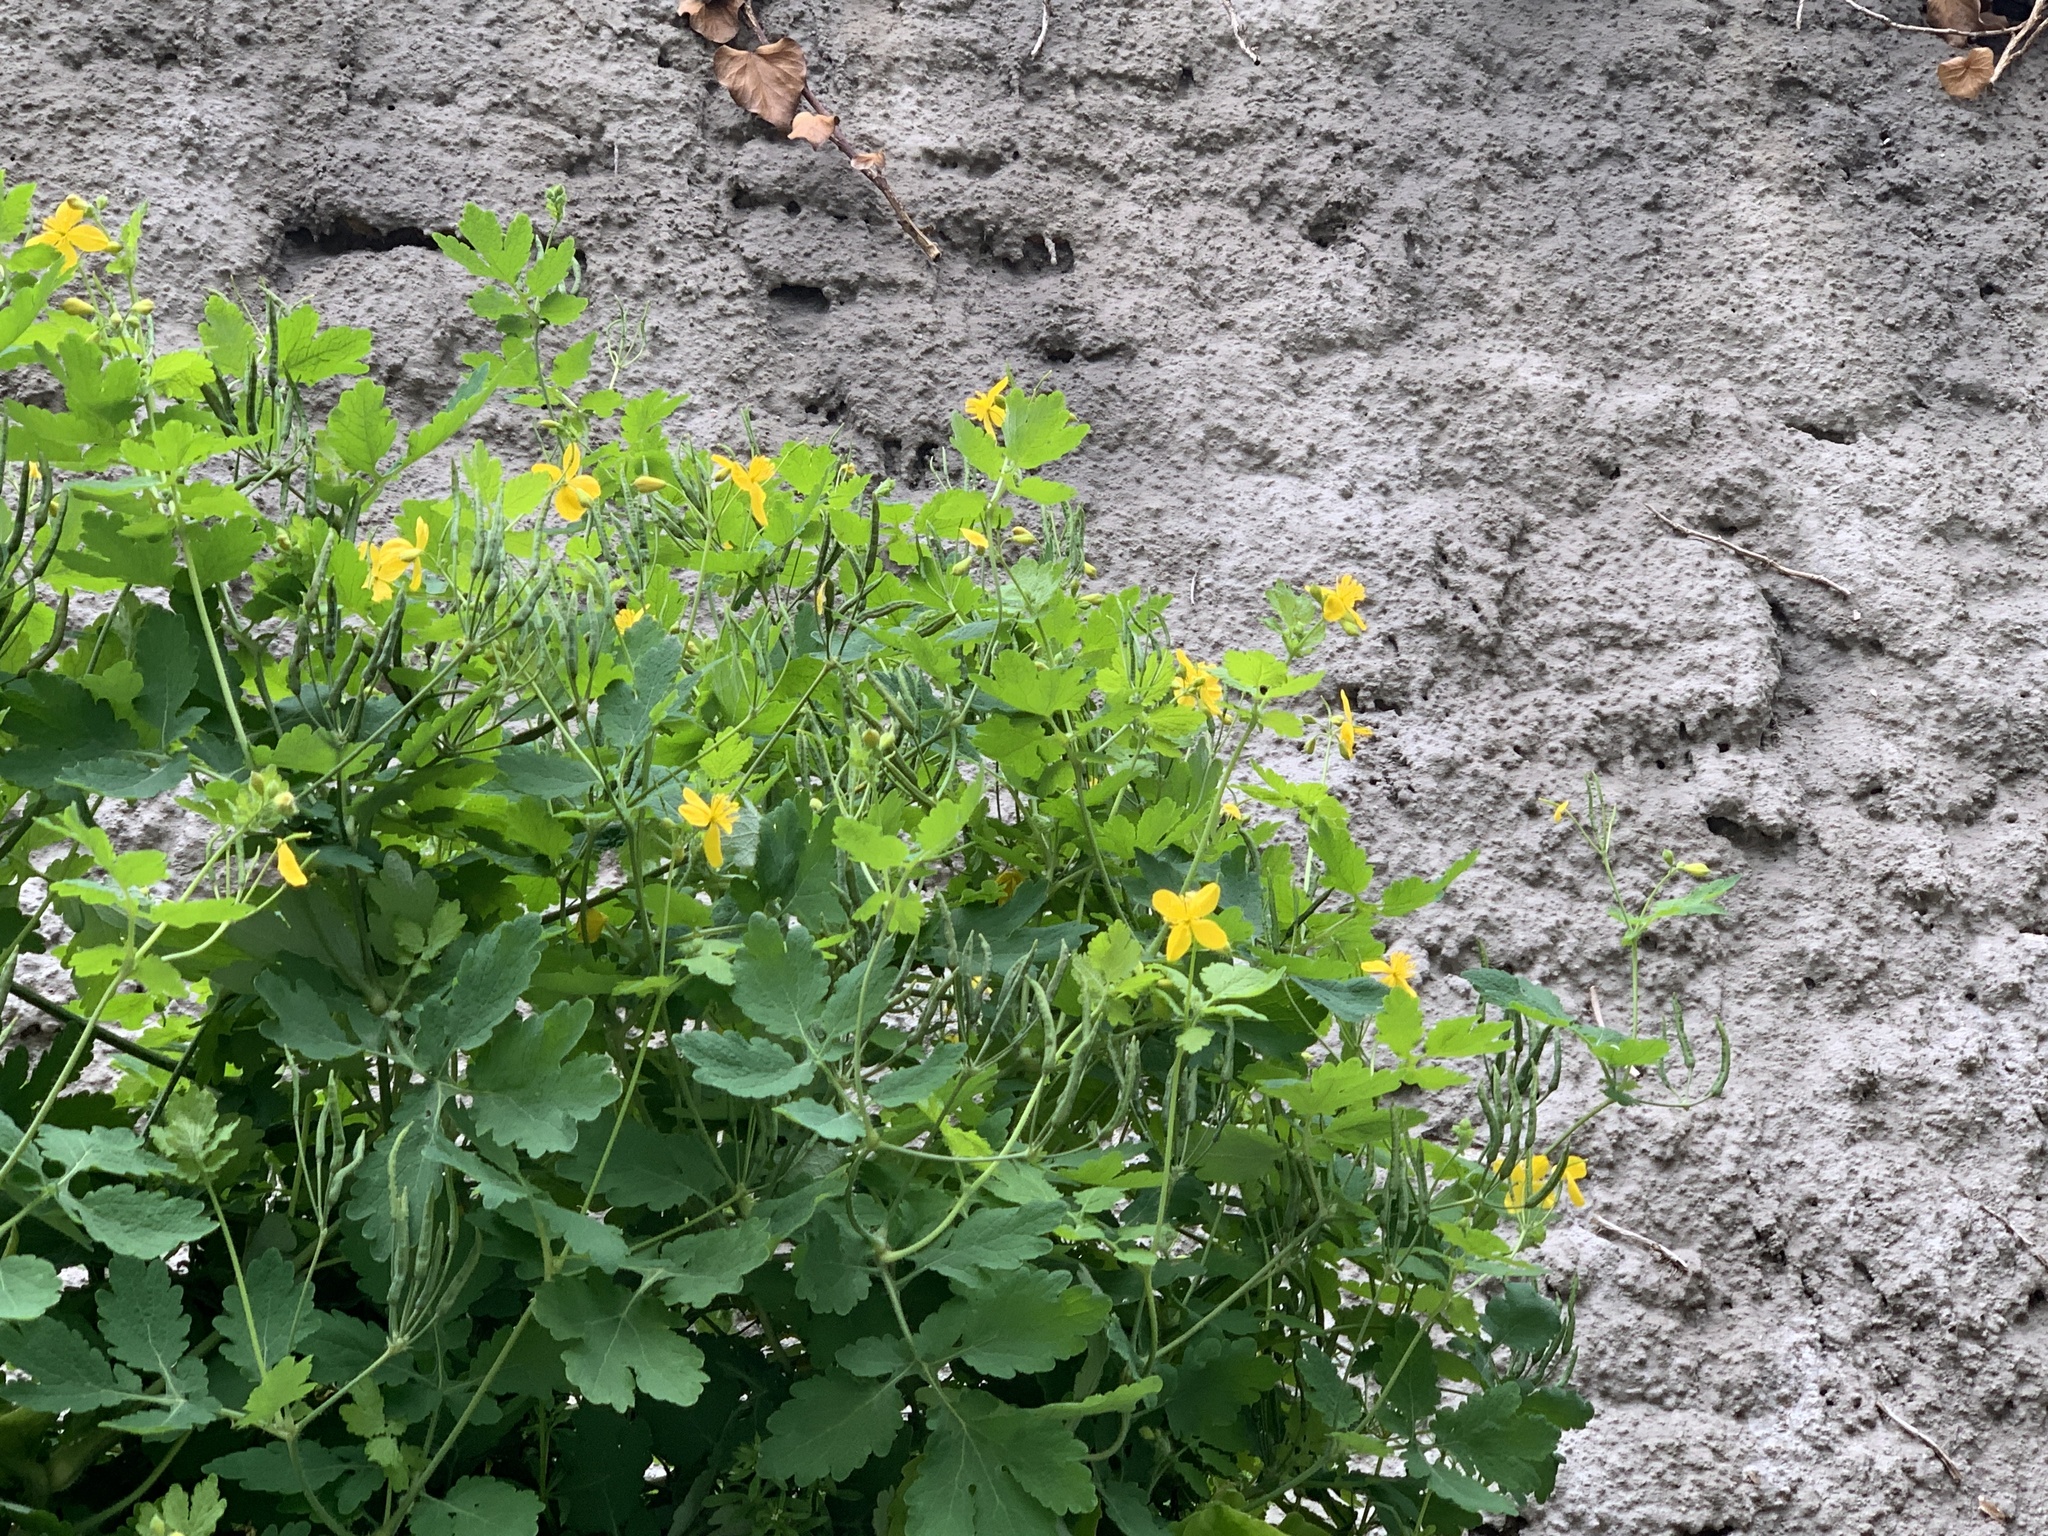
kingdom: Plantae
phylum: Tracheophyta
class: Magnoliopsida
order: Ranunculales
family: Papaveraceae
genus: Chelidonium
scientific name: Chelidonium majus
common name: Greater celandine
